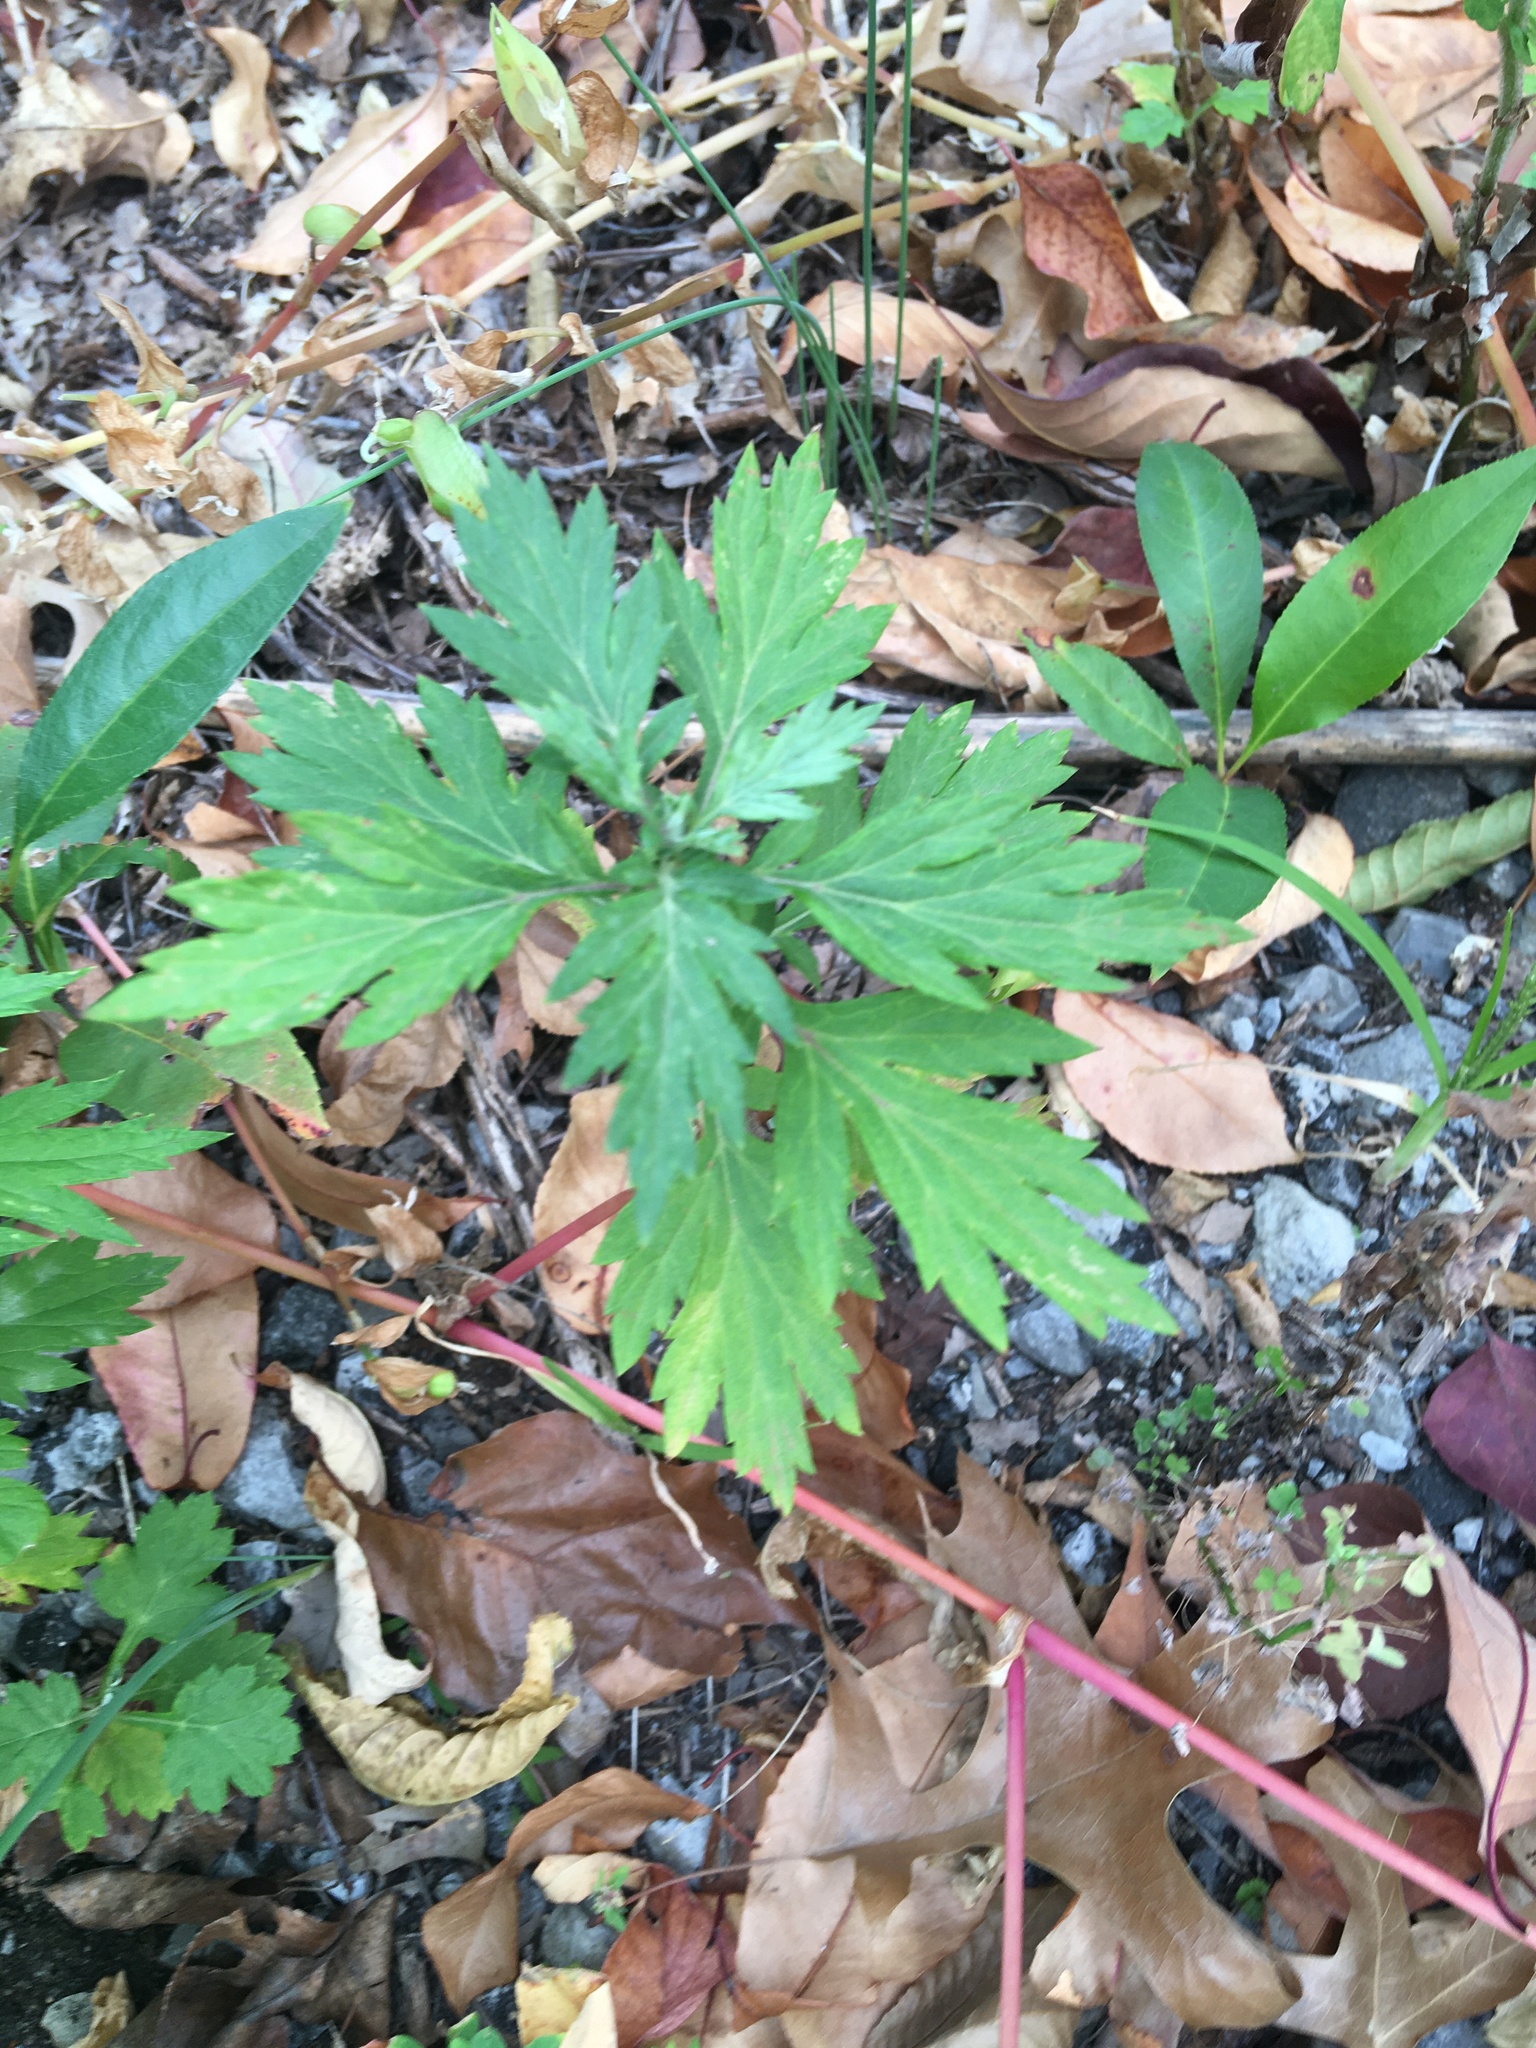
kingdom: Plantae
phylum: Tracheophyta
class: Magnoliopsida
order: Asterales
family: Asteraceae
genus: Artemisia
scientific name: Artemisia vulgaris
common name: Mugwort
